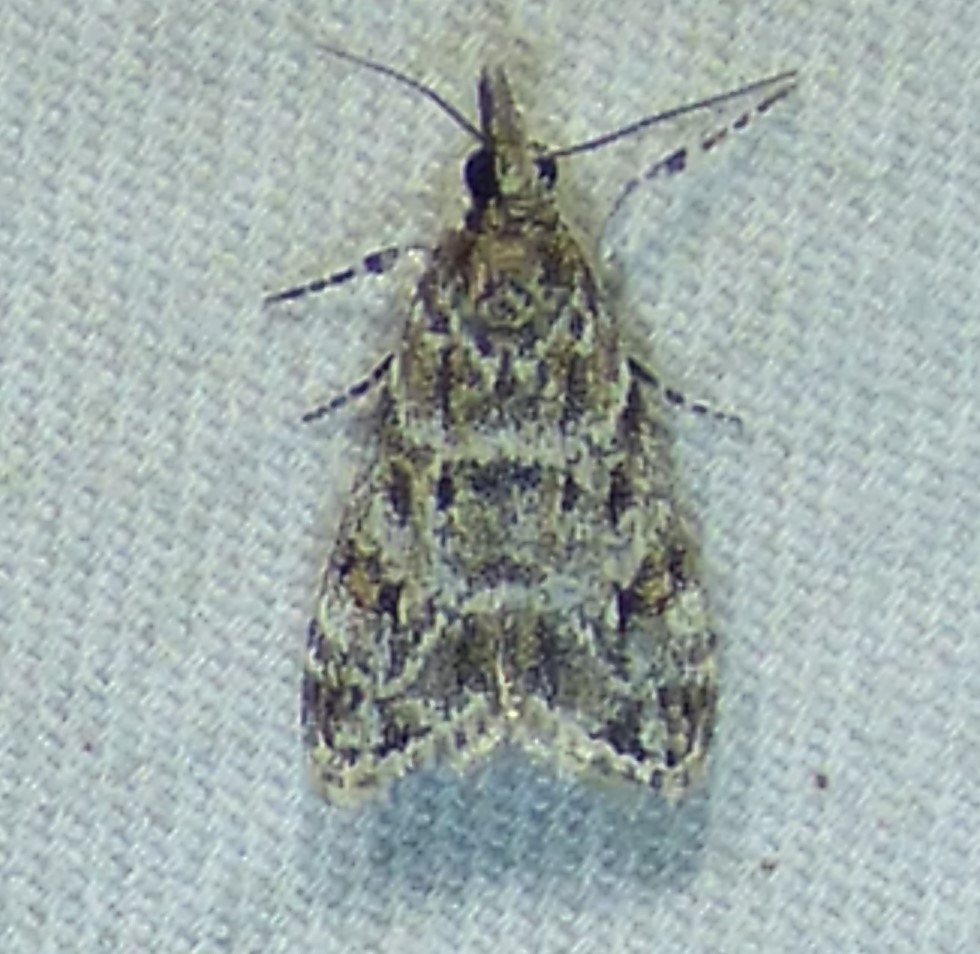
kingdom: Animalia
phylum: Arthropoda
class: Insecta
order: Lepidoptera
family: Crambidae
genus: Eudonia
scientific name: Eudonia heterosalis
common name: Mcdunnough's eudonia
